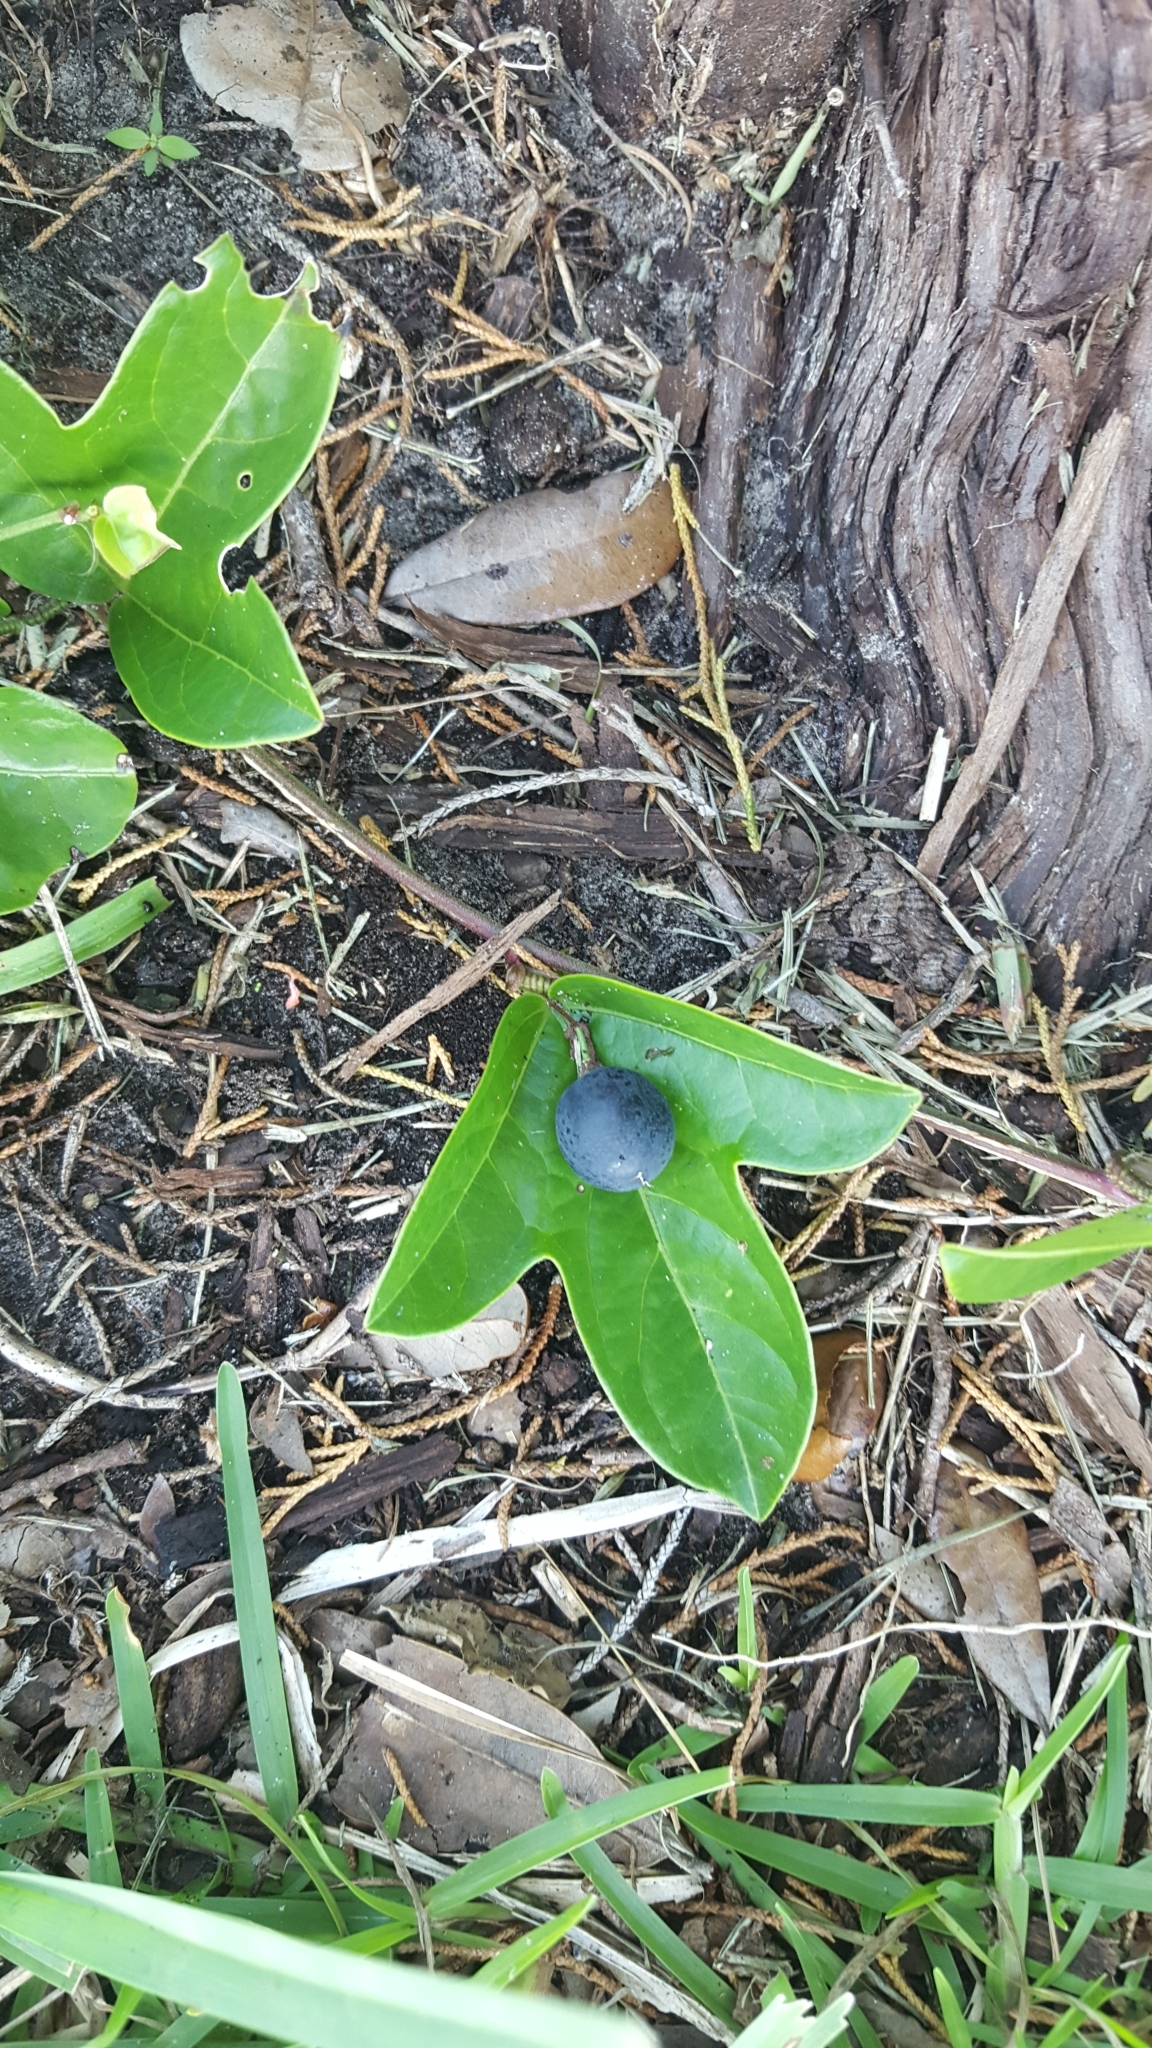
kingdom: Plantae
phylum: Tracheophyta
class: Magnoliopsida
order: Malpighiales
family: Passifloraceae
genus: Passiflora
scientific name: Passiflora pallida
